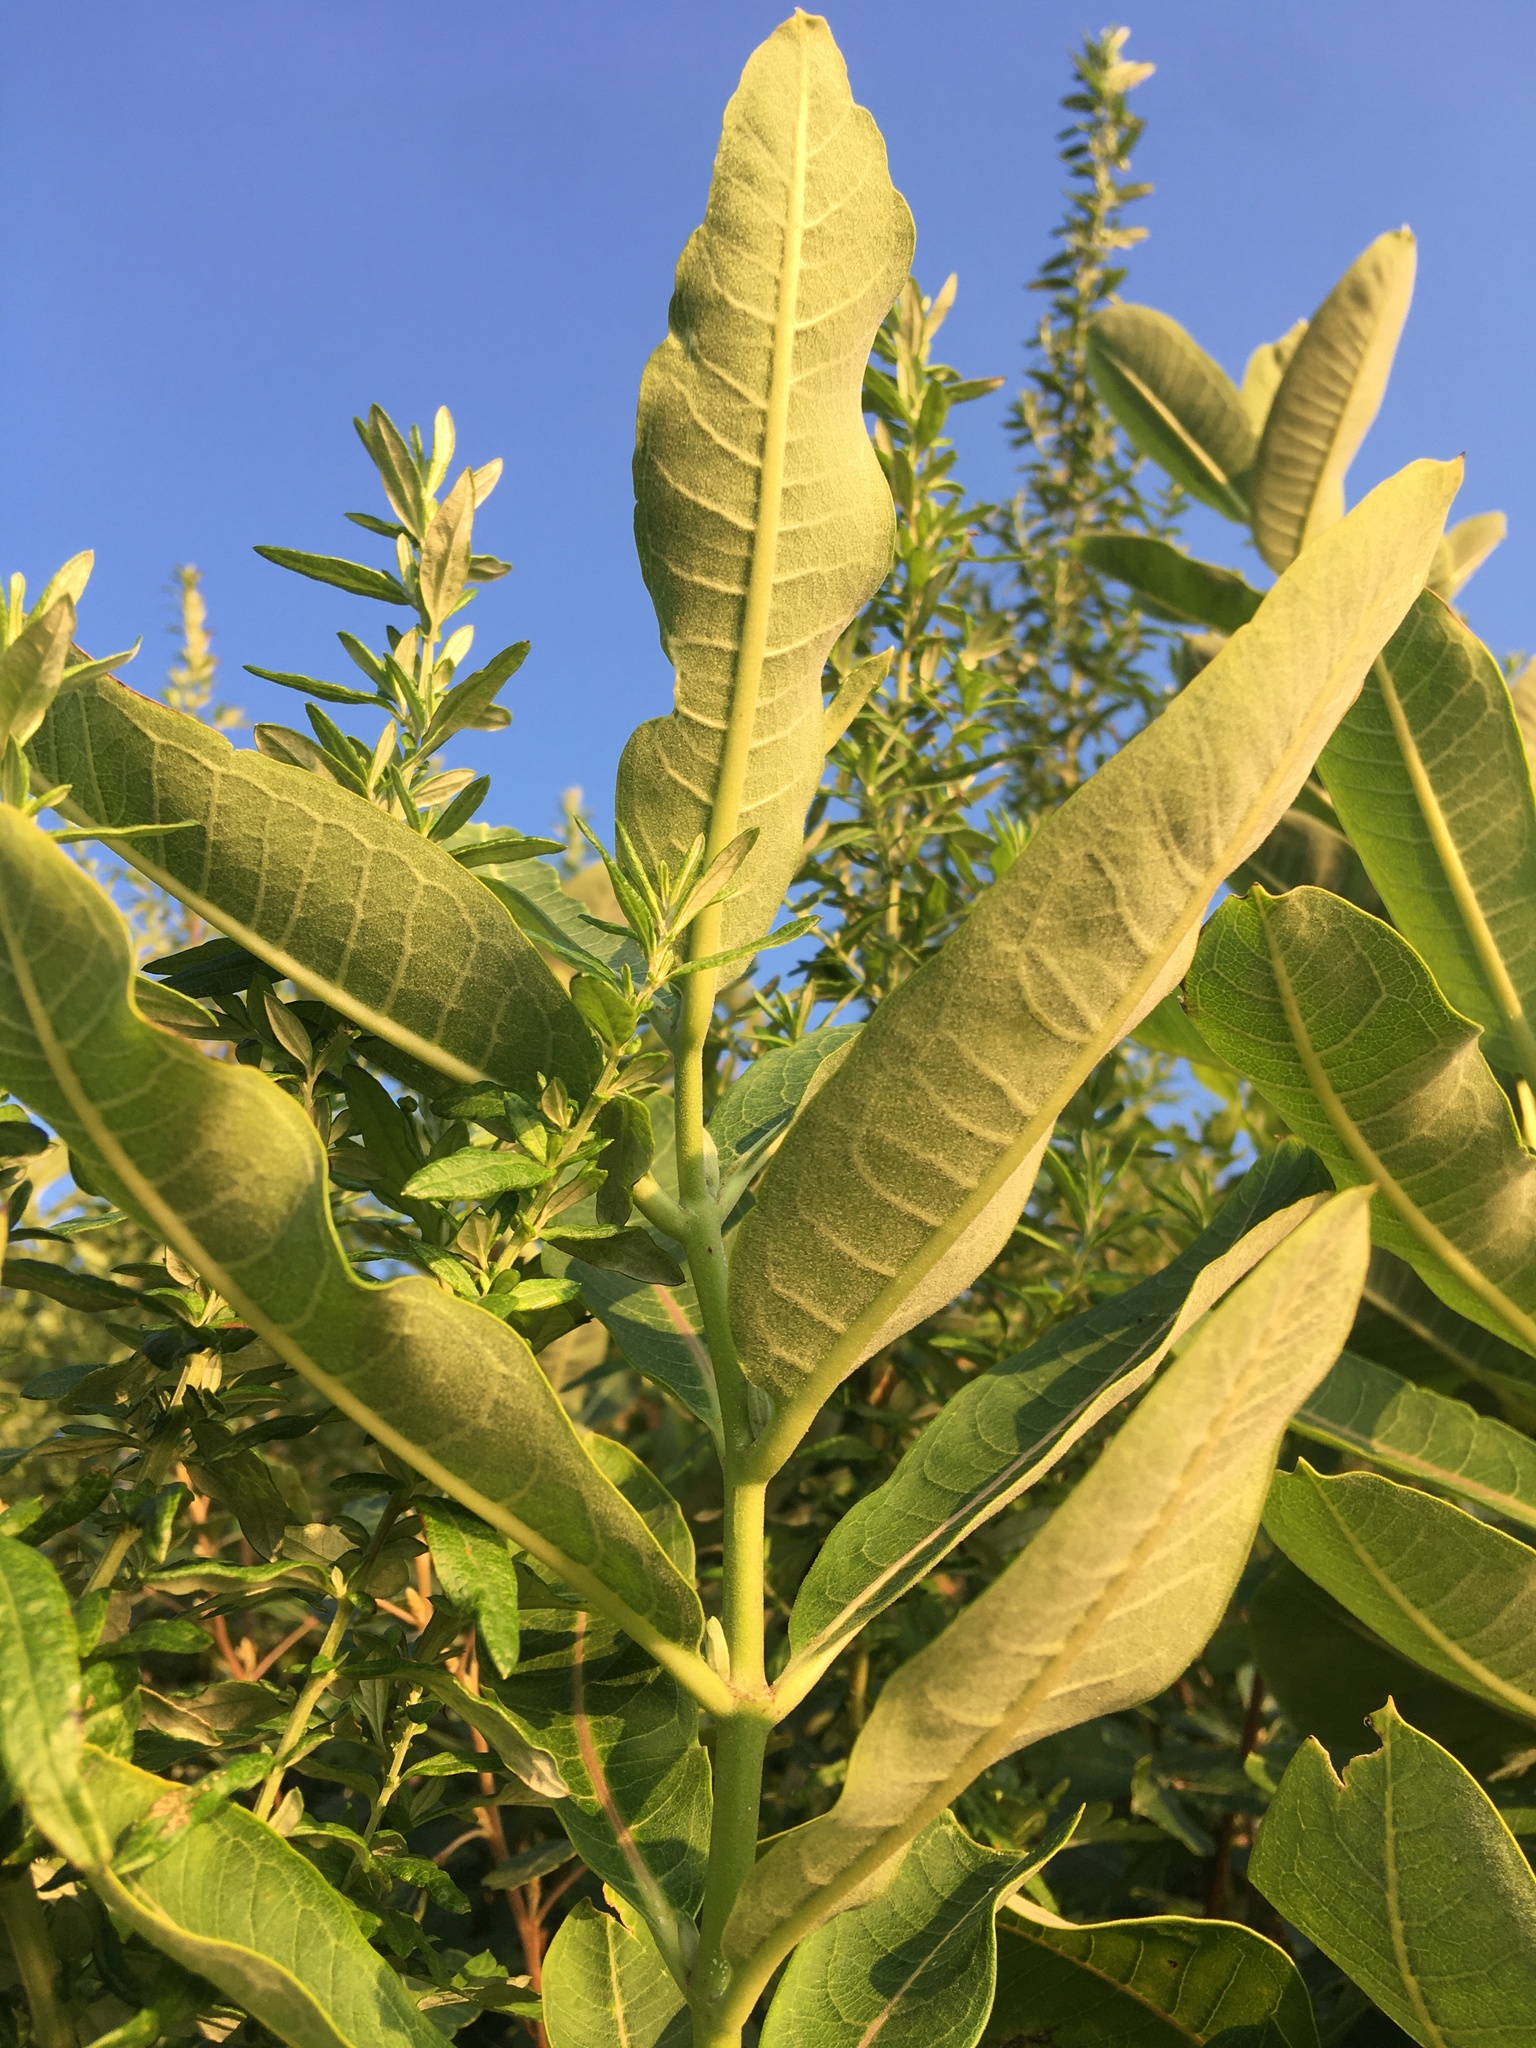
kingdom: Plantae
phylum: Tracheophyta
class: Magnoliopsida
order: Gentianales
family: Apocynaceae
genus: Asclepias
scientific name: Asclepias syriaca
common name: Common milkweed
